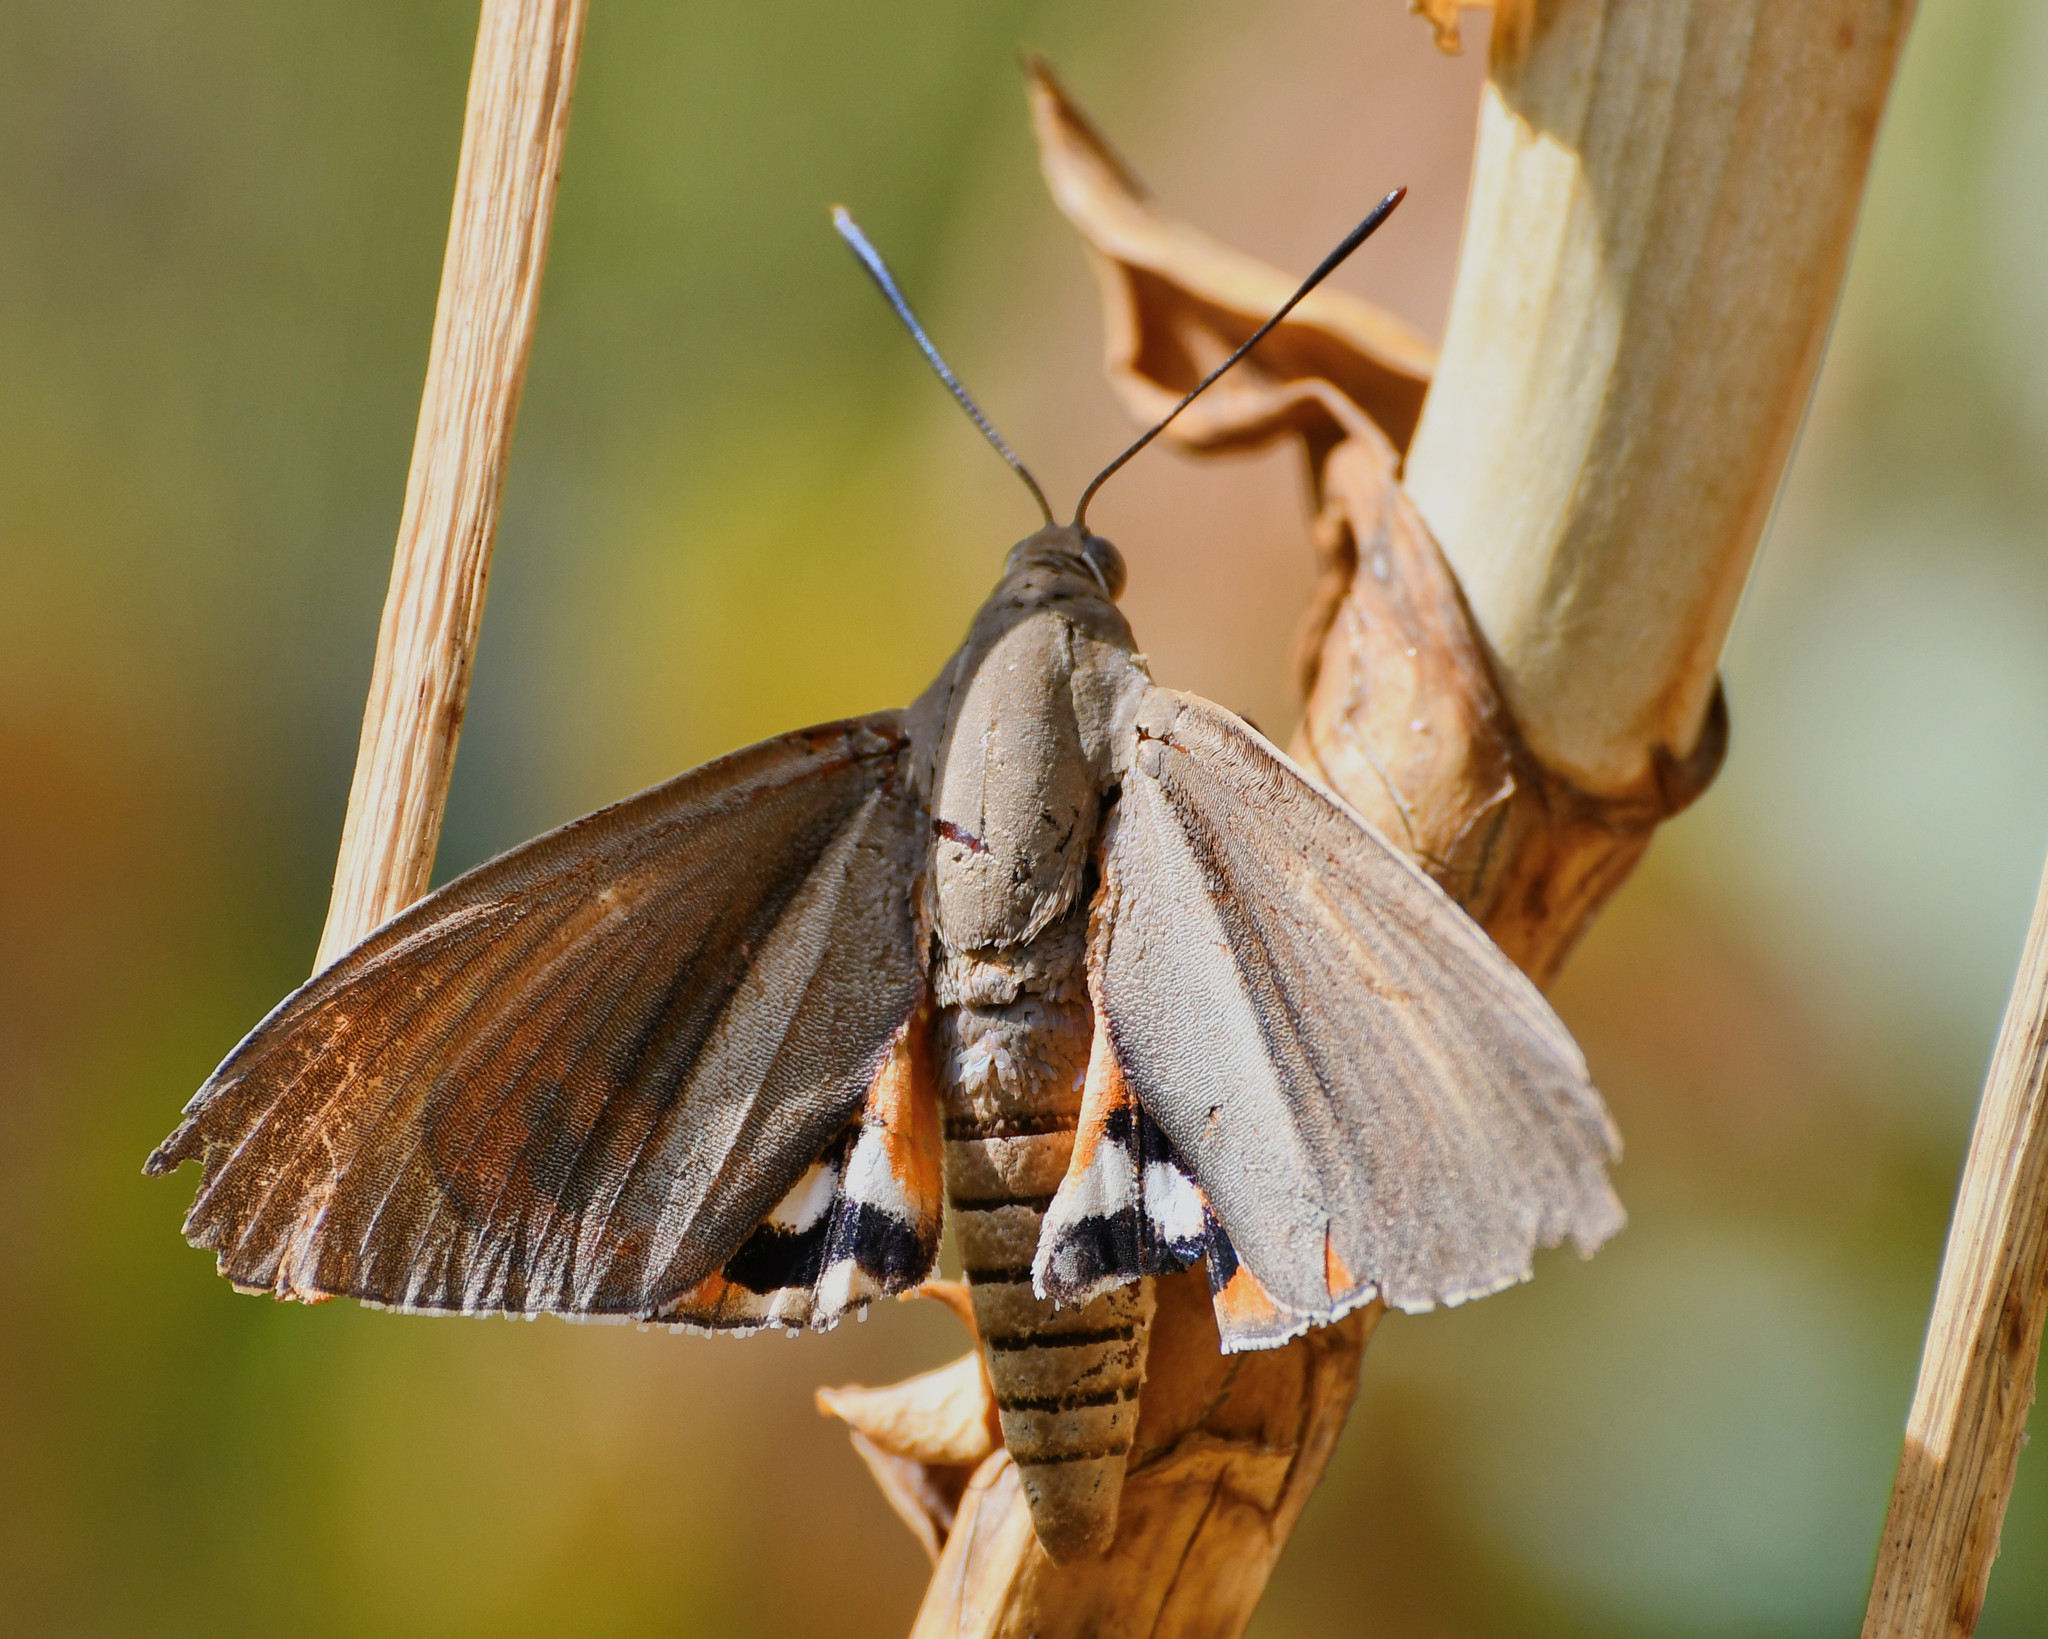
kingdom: Animalia
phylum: Arthropoda
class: Insecta
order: Lepidoptera
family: Castniidae
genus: Paysandisia
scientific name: Paysandisia archon
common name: Palm moth
